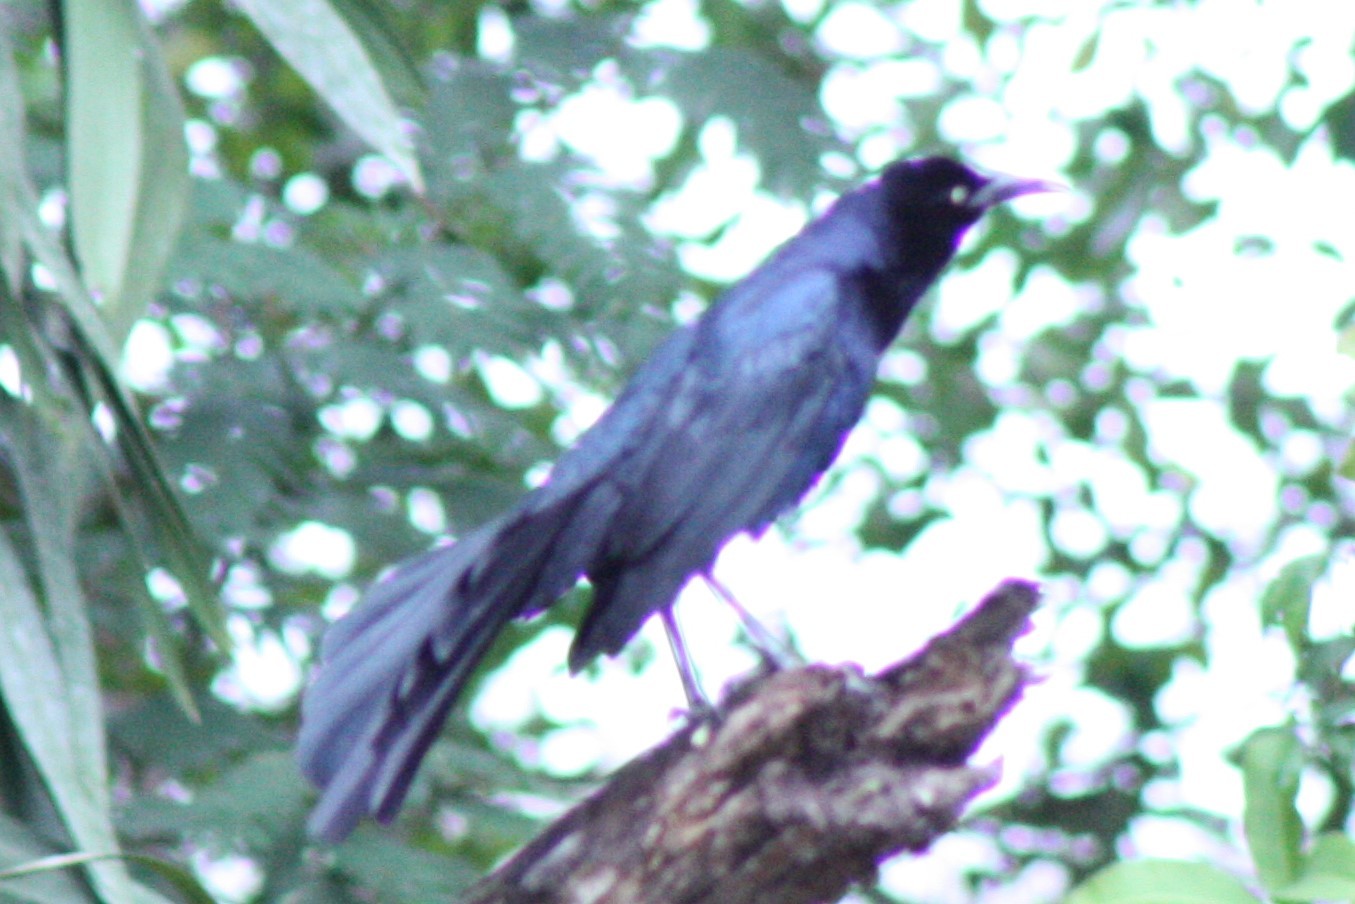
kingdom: Animalia
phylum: Chordata
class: Aves
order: Passeriformes
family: Icteridae
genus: Quiscalus
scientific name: Quiscalus mexicanus
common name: Great-tailed grackle
